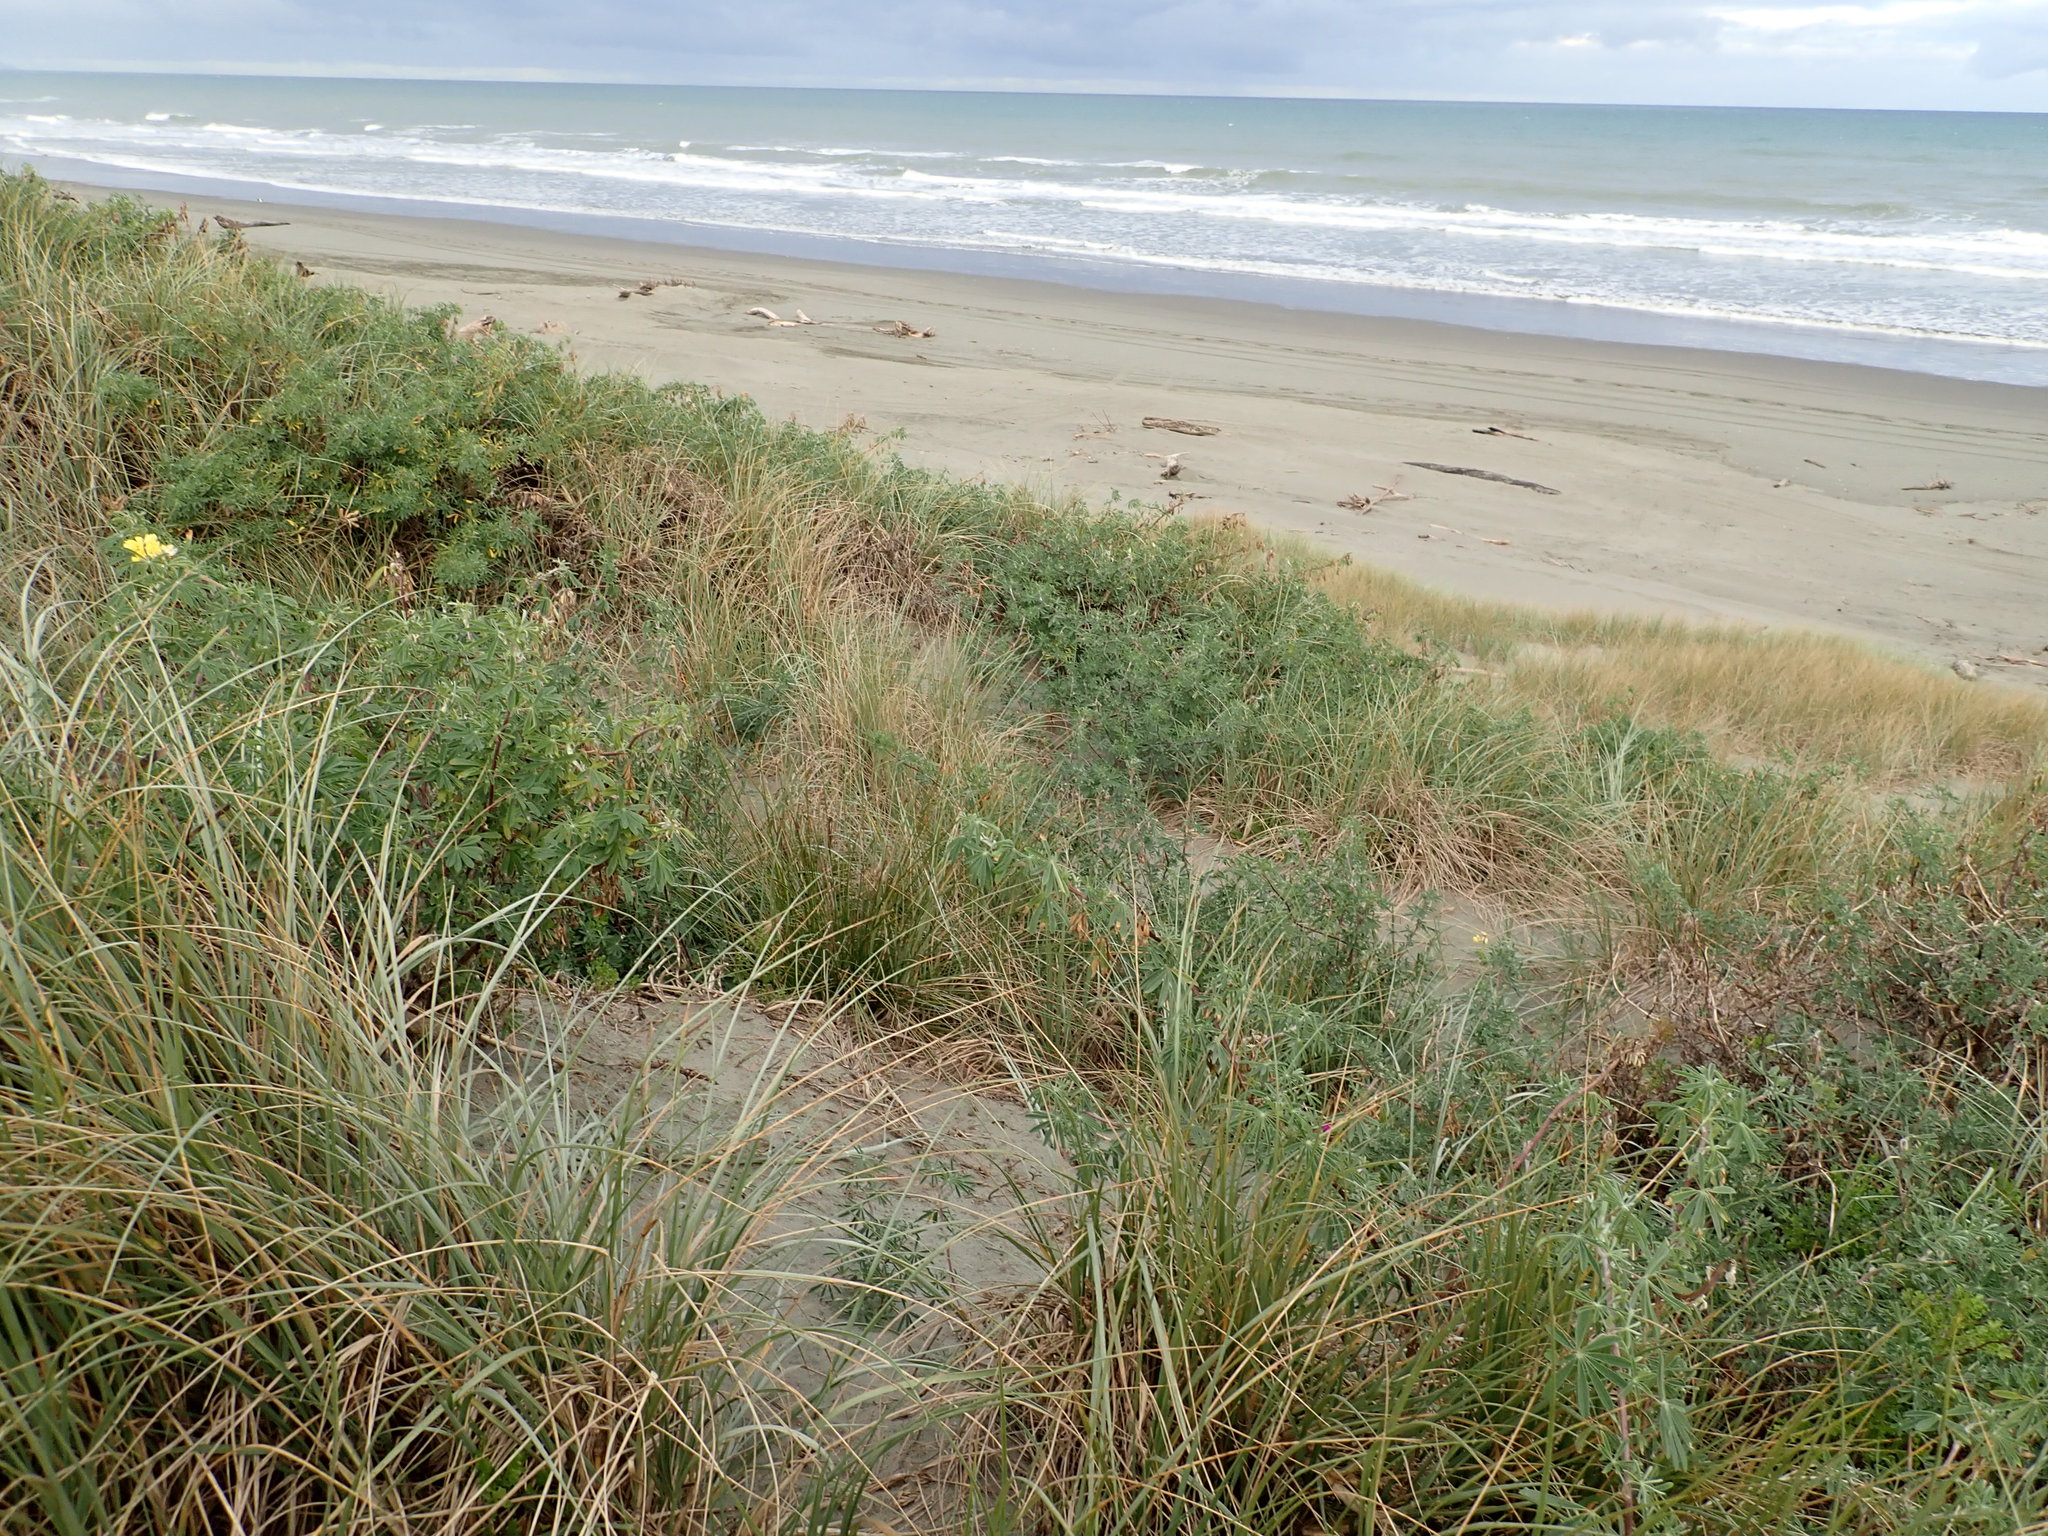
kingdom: Plantae
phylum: Tracheophyta
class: Magnoliopsida
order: Fabales
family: Fabaceae
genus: Lupinus
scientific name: Lupinus arboreus
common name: Yellow bush lupine
